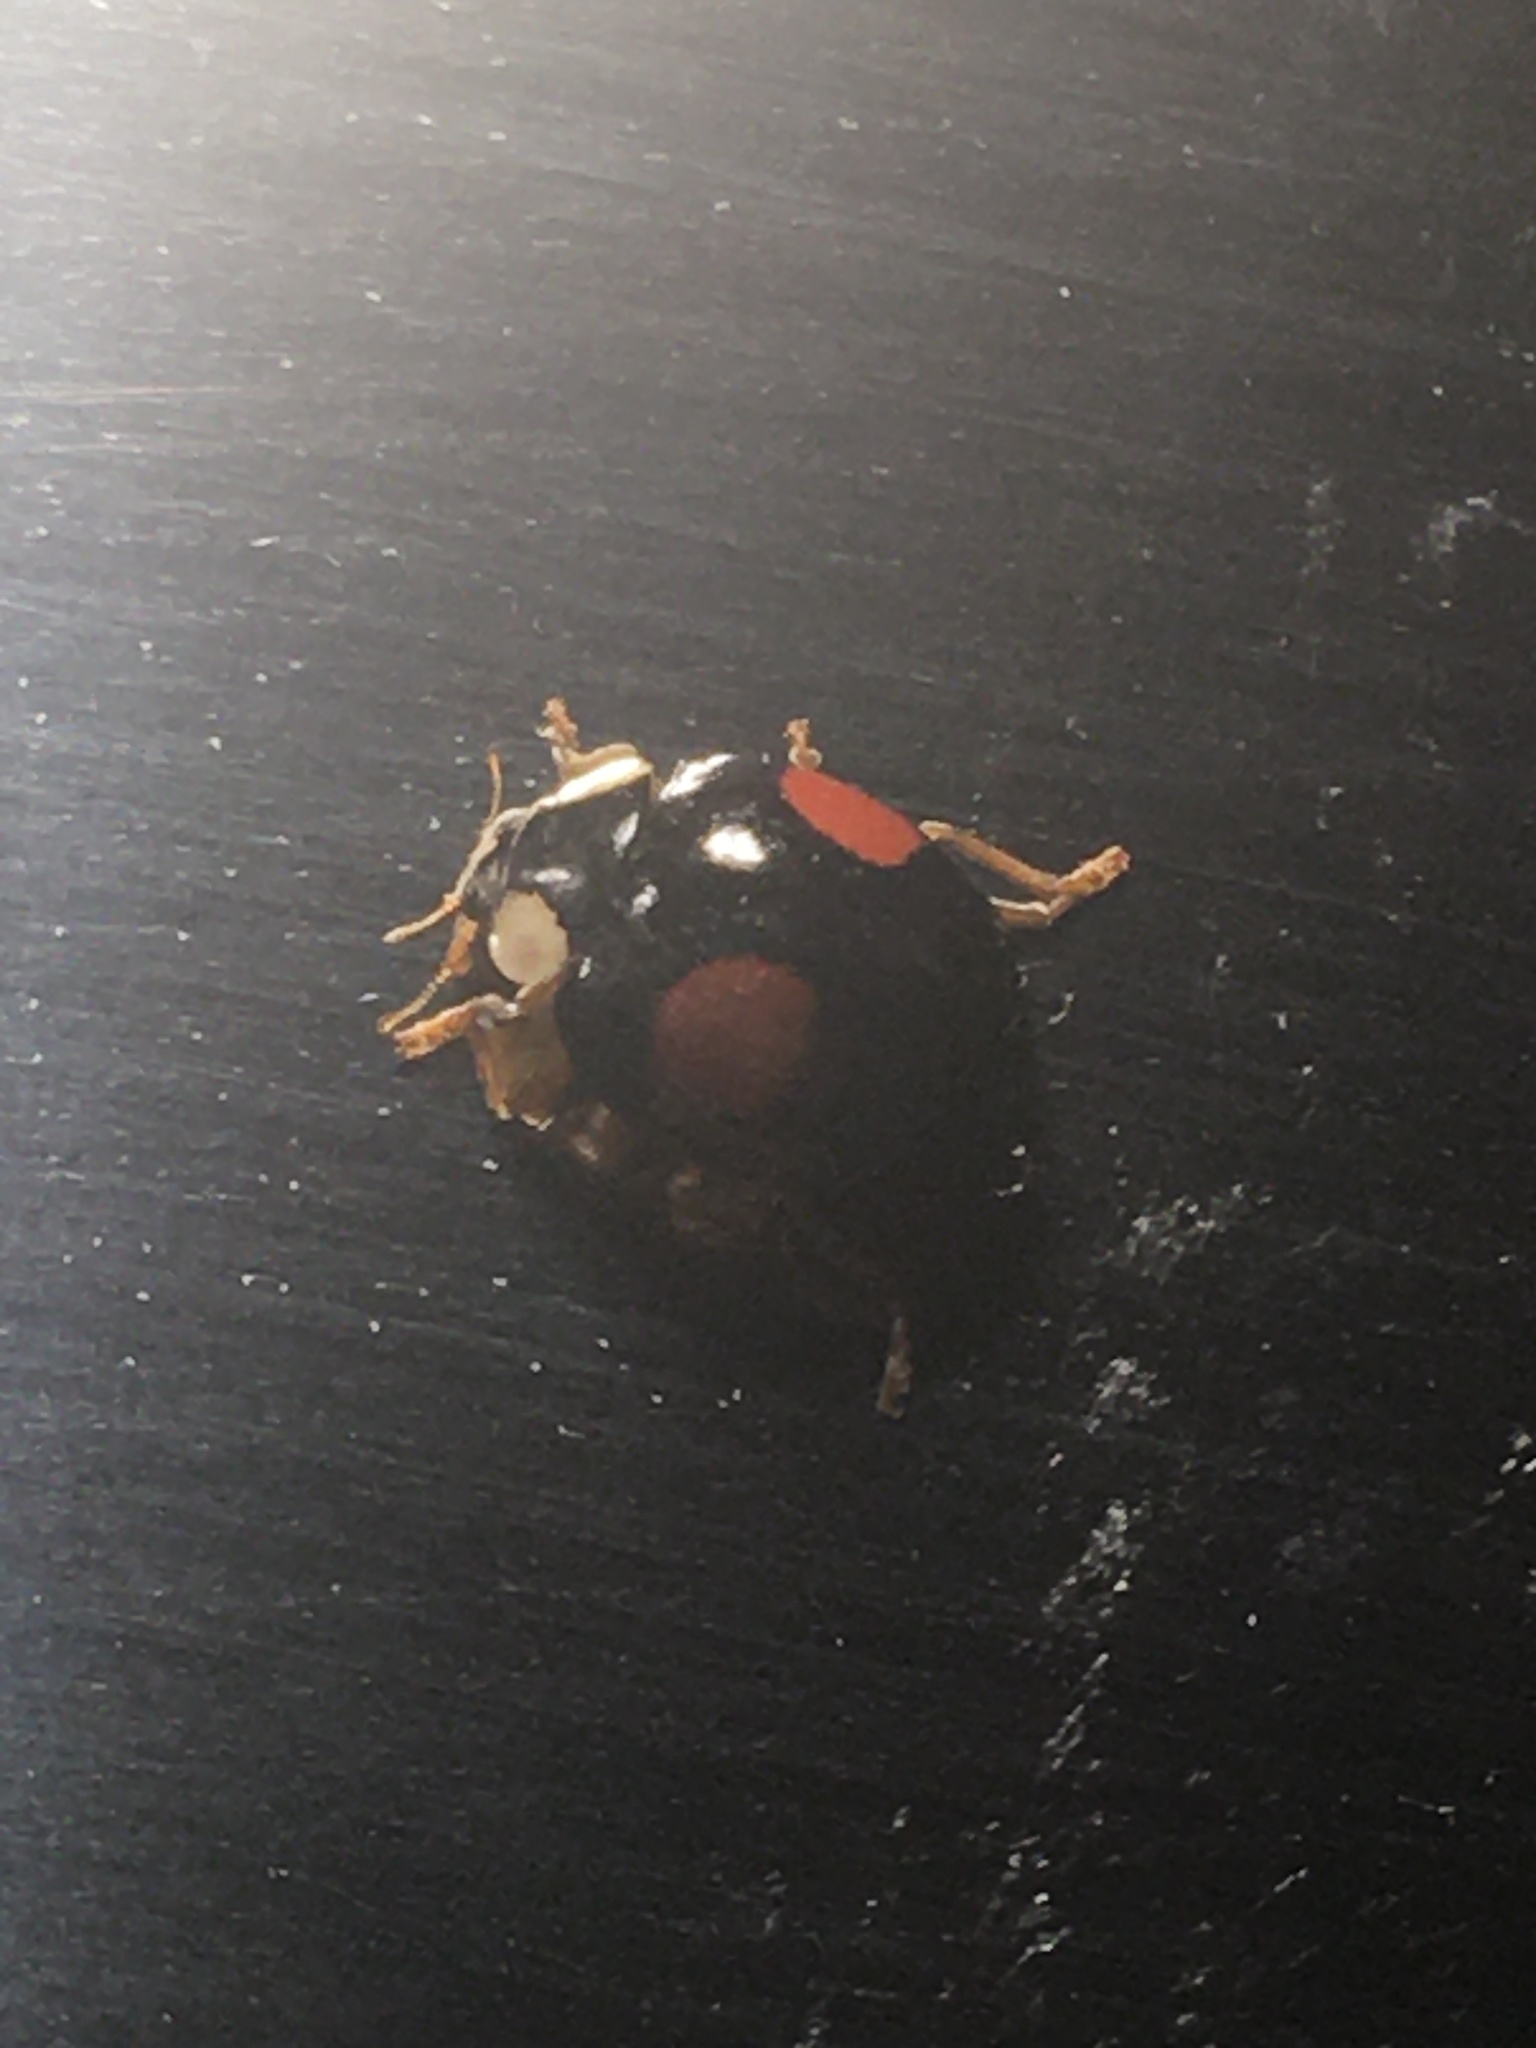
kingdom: Animalia
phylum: Arthropoda
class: Insecta
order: Coleoptera
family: Coccinellidae
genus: Harmonia
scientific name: Harmonia axyridis
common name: Harlequin ladybird
